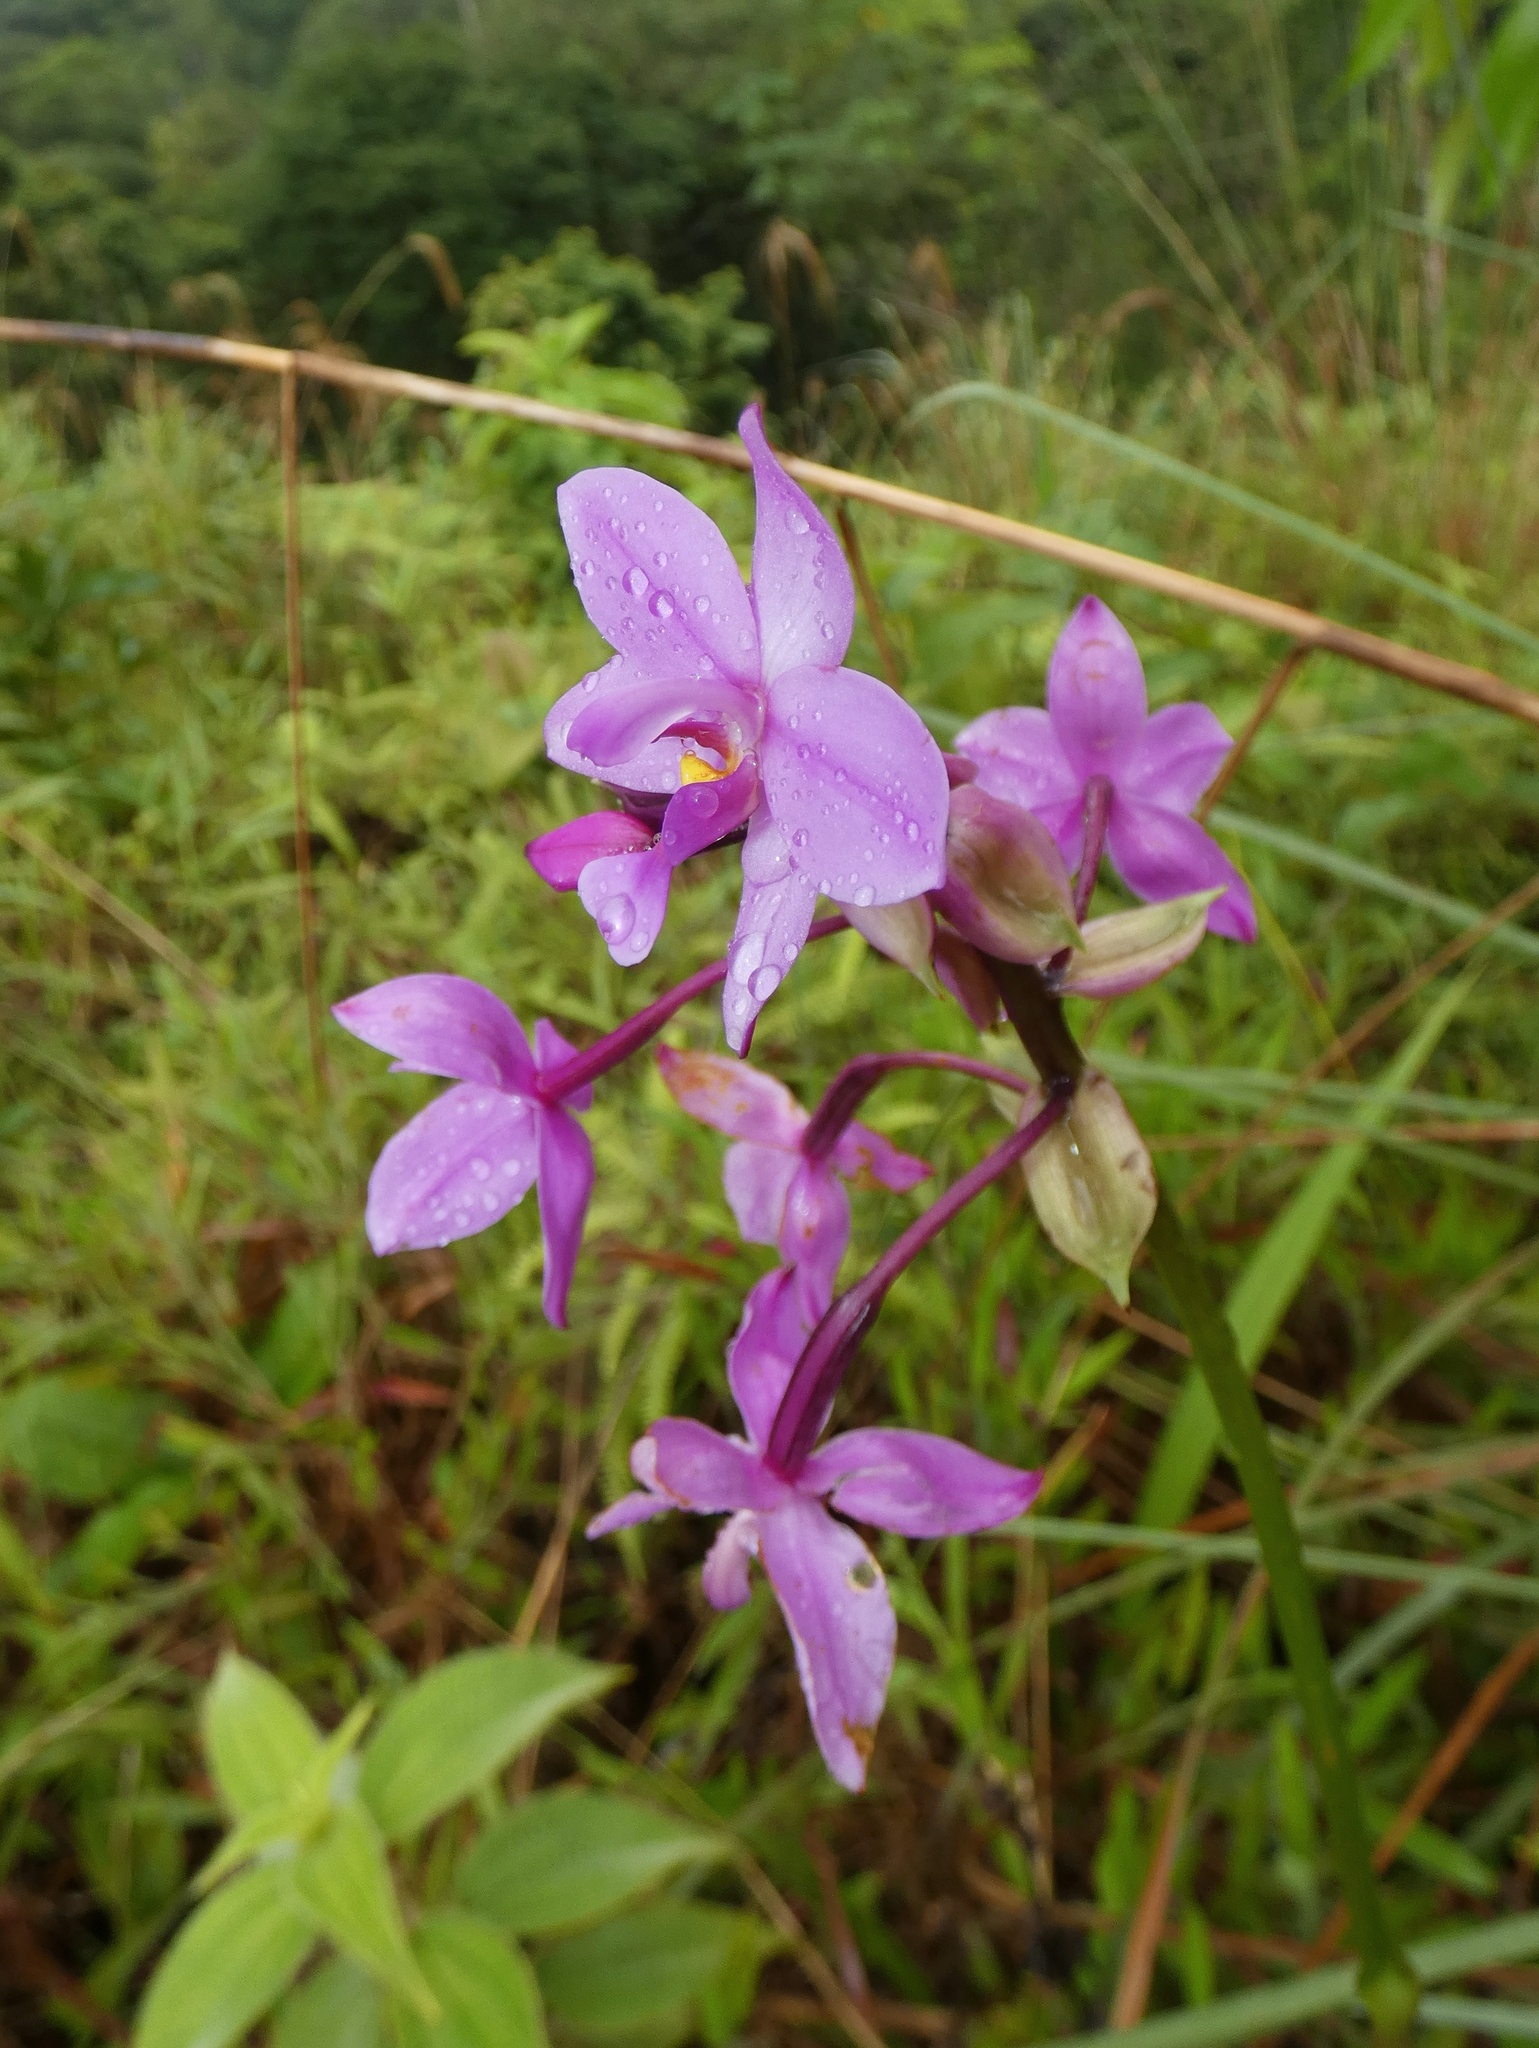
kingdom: Plantae
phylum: Tracheophyta
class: Liliopsida
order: Asparagales
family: Orchidaceae
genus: Spathoglottis
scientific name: Spathoglottis plicata
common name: Philippine ground orchid
